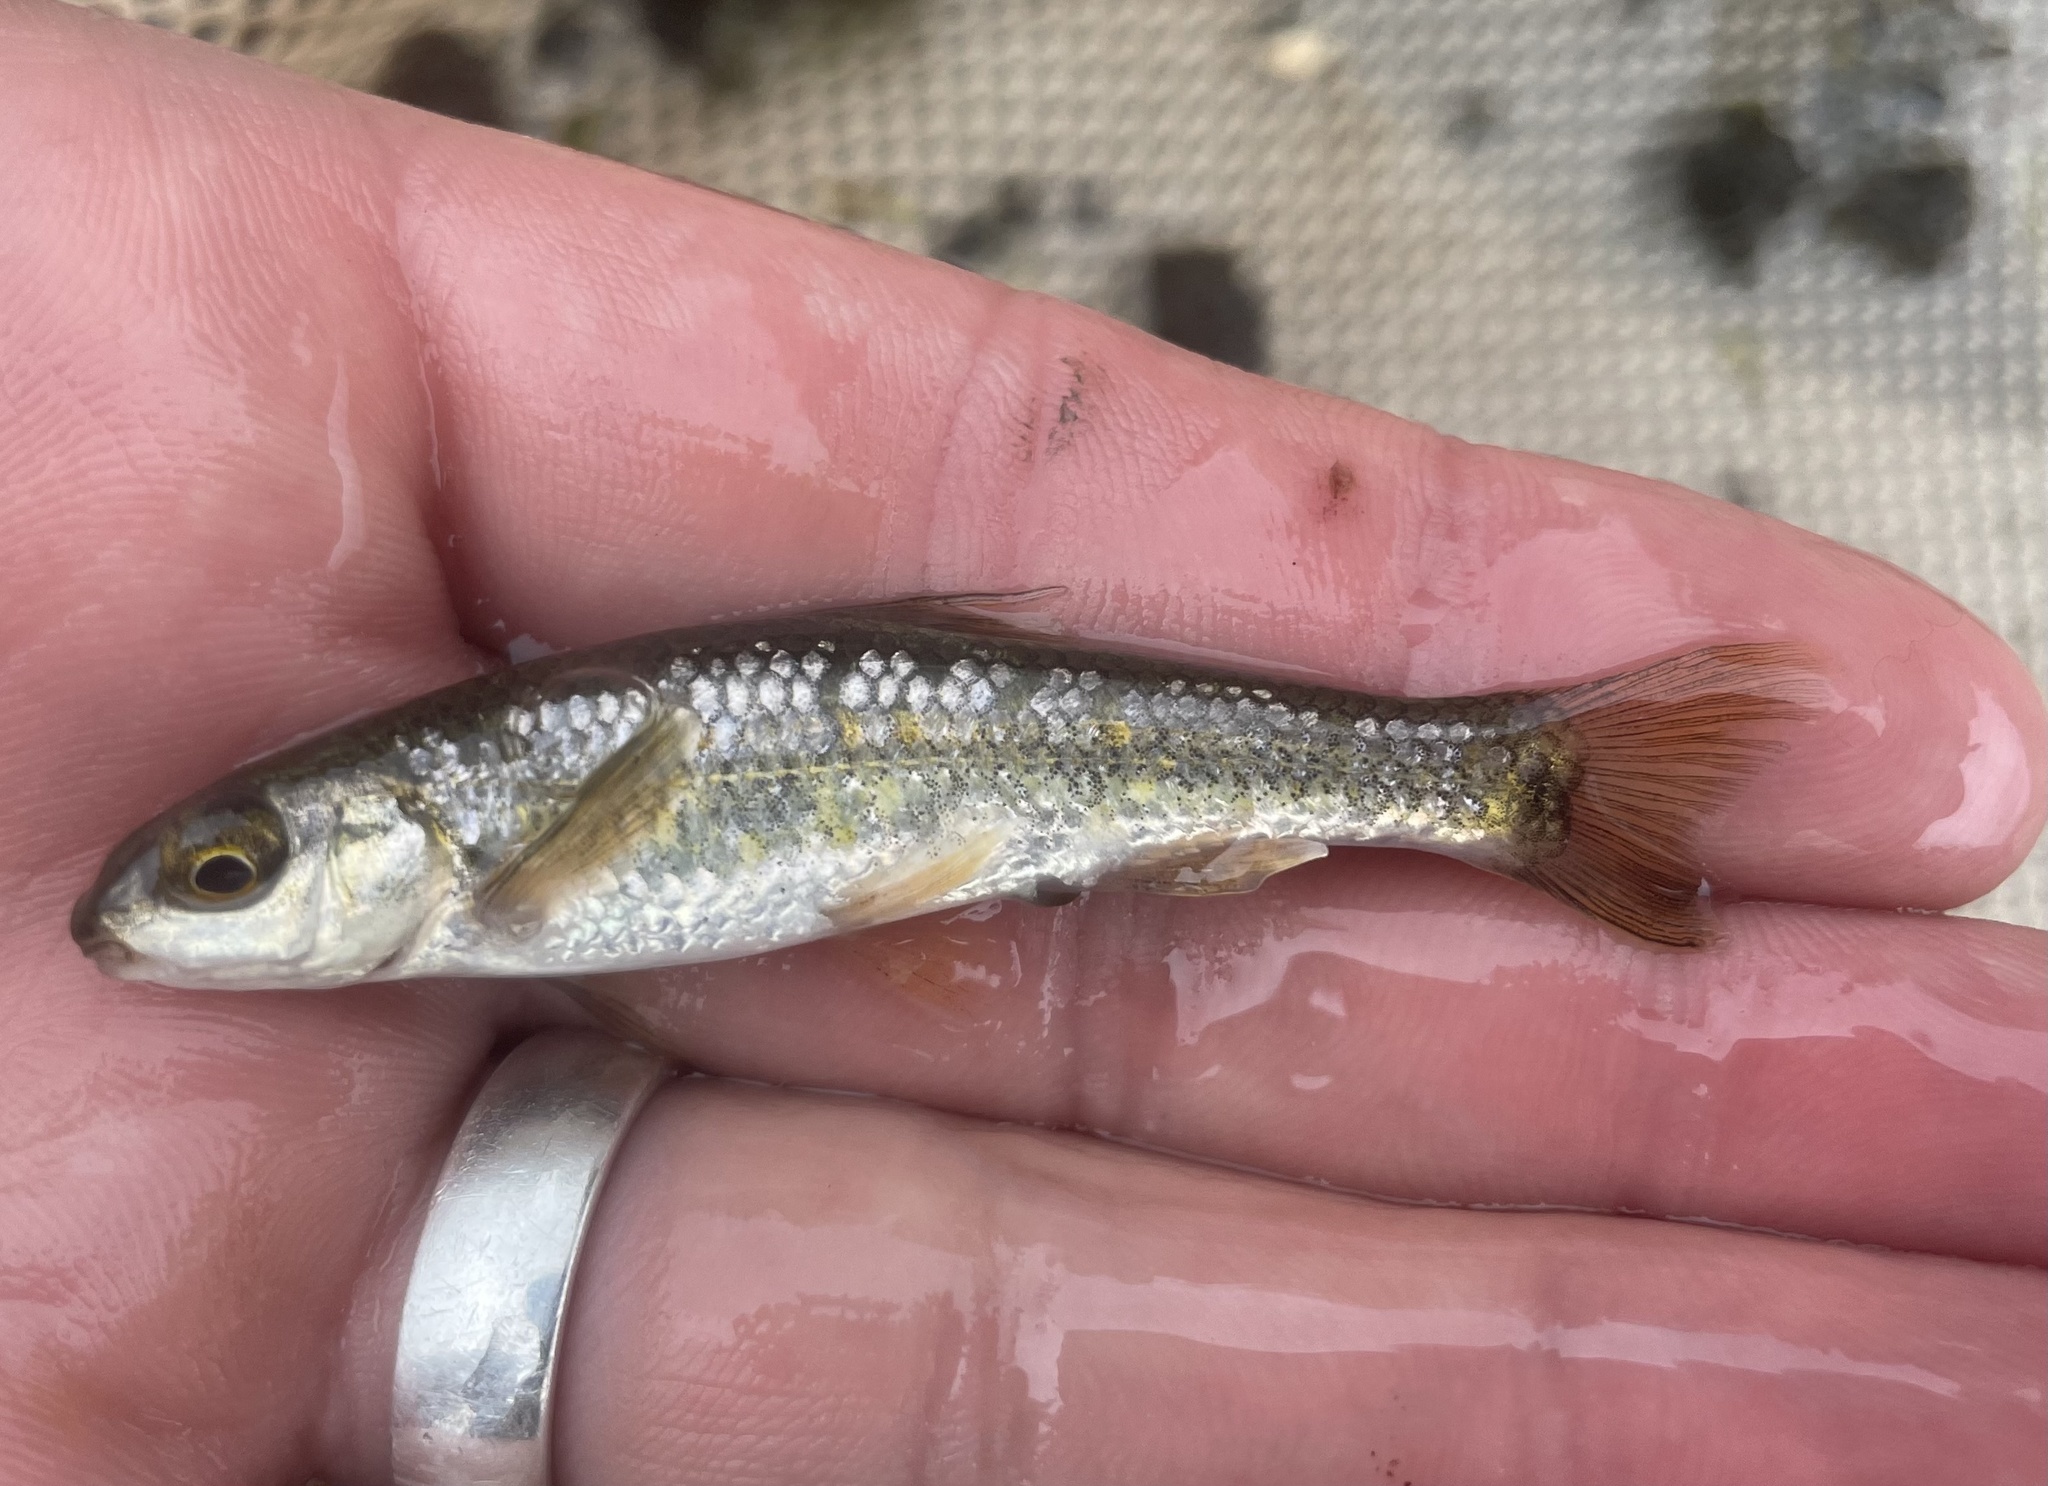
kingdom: Animalia
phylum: Chordata
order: Cypriniformes
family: Cyprinidae
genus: Dionda
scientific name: Dionda flavipinnis
